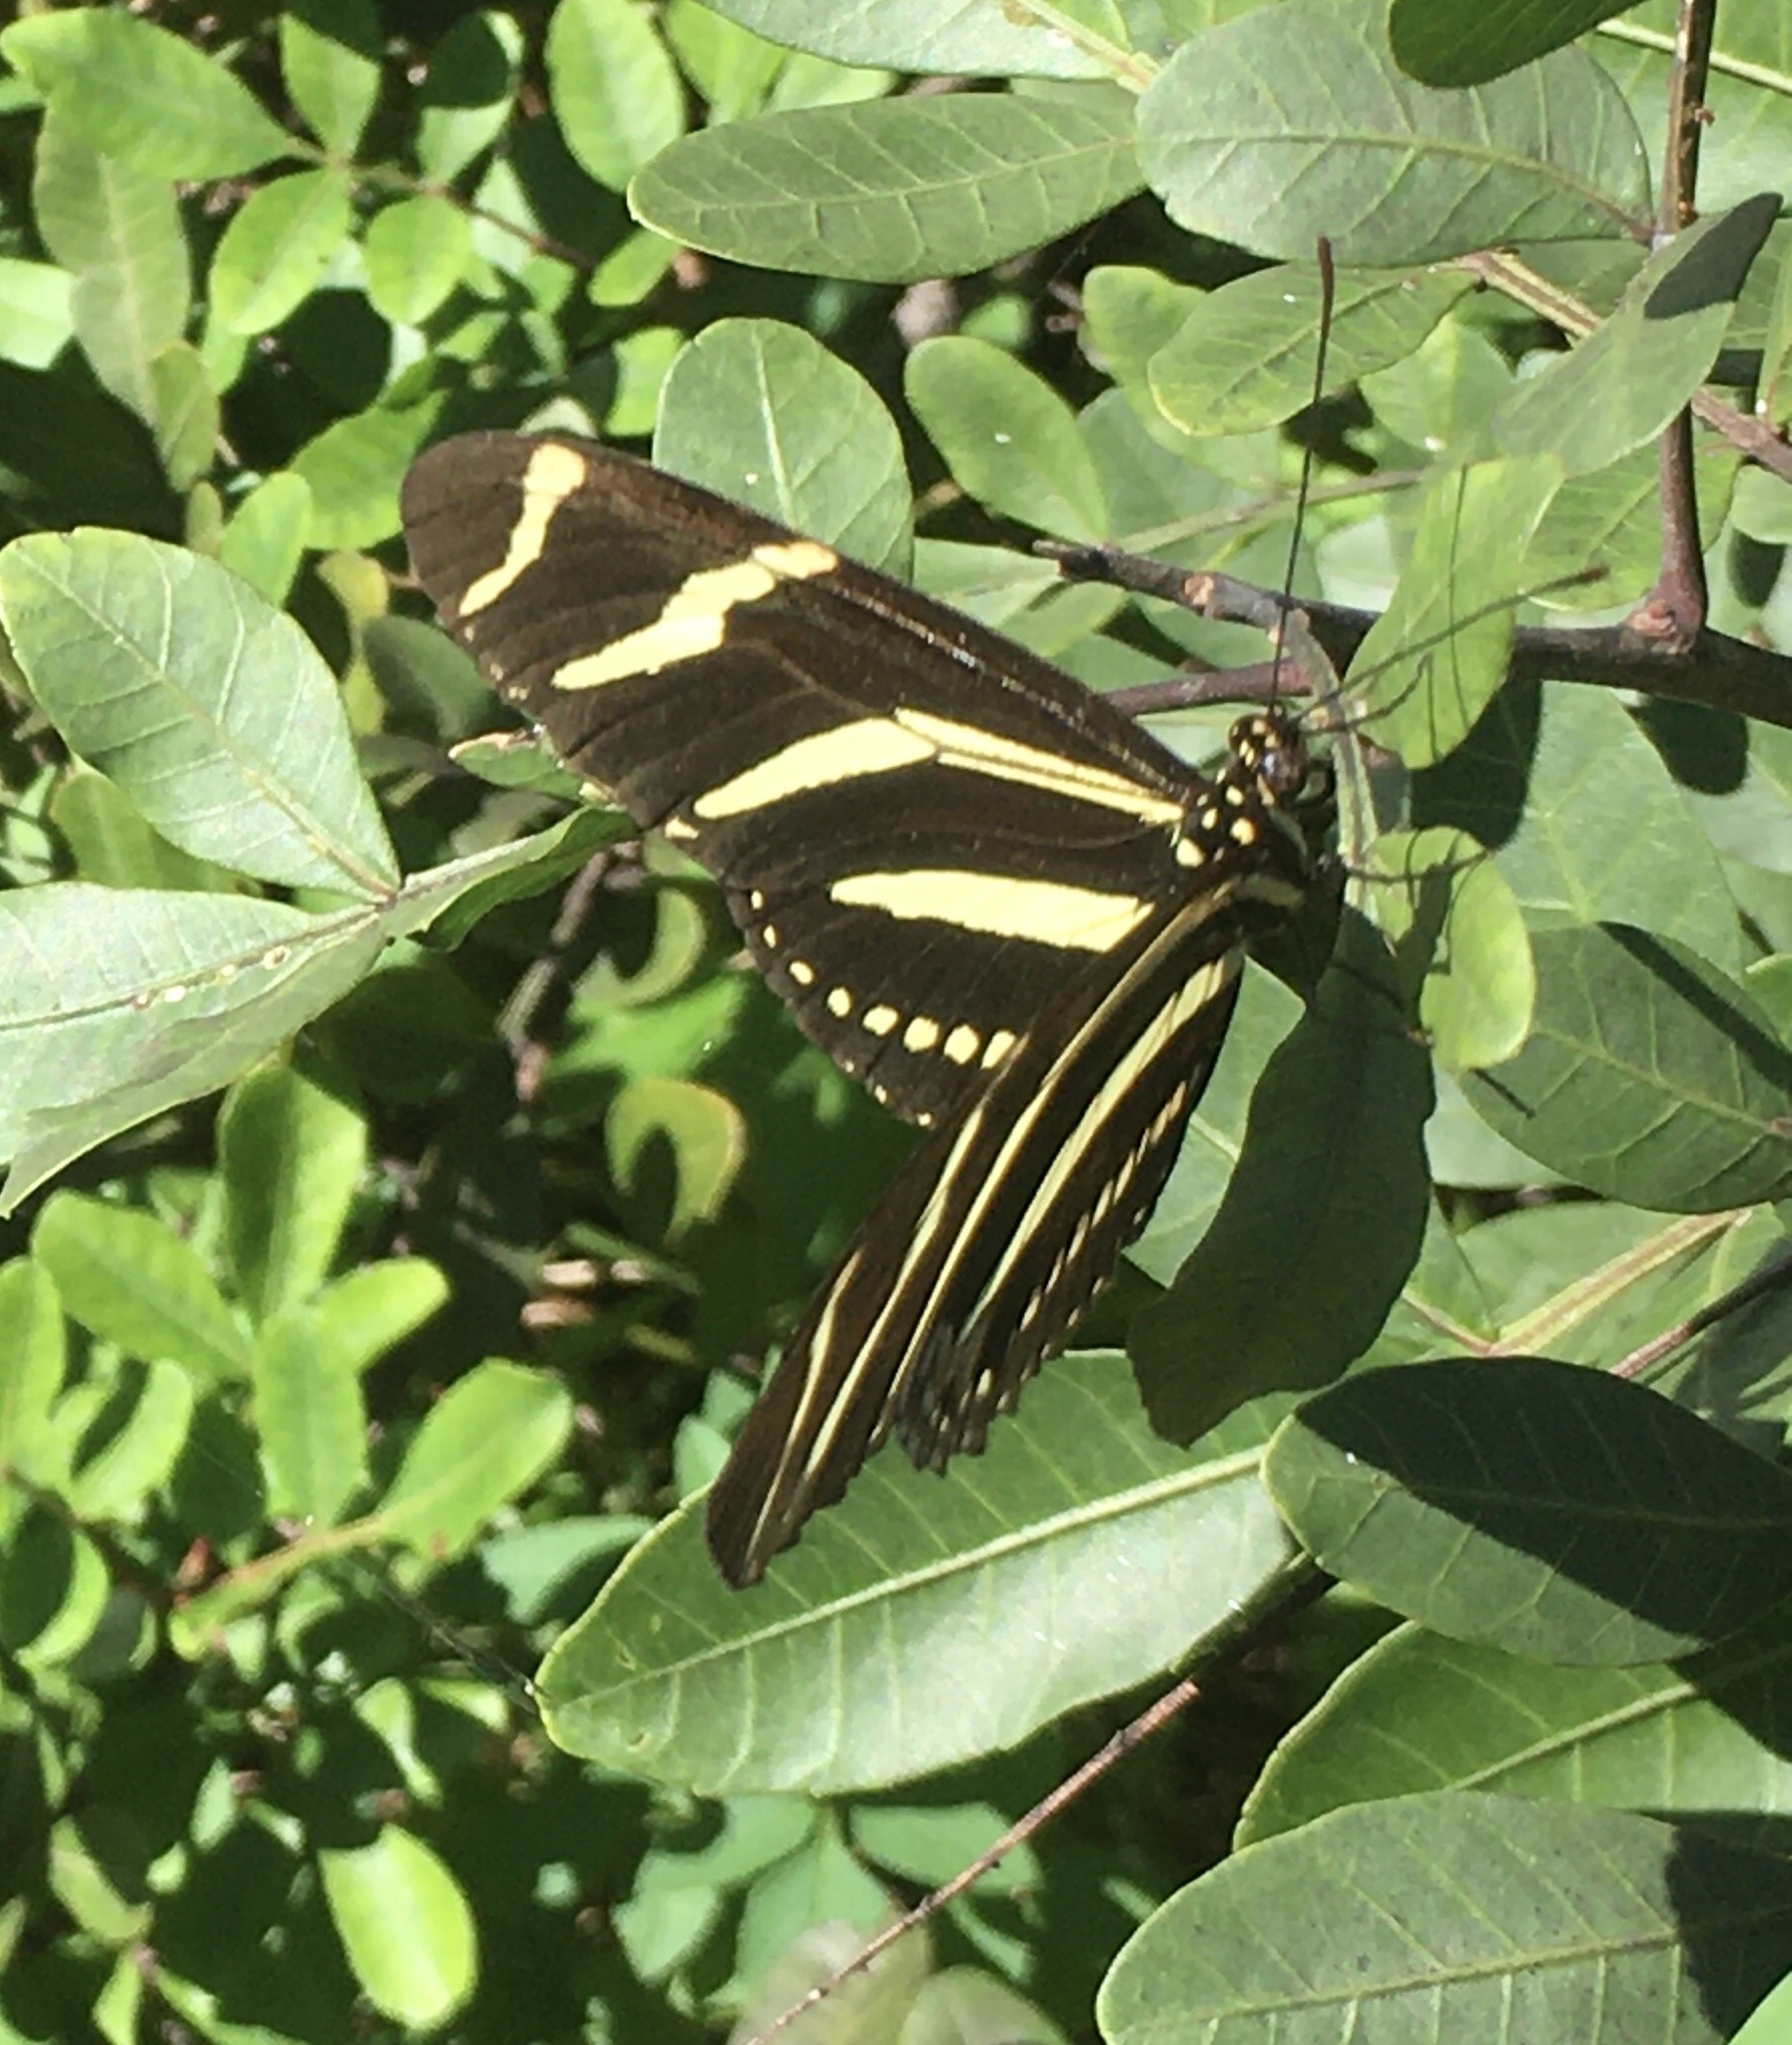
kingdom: Animalia
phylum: Arthropoda
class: Insecta
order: Lepidoptera
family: Nymphalidae
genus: Heliconius
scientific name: Heliconius charithonia
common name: Zebra long wing
